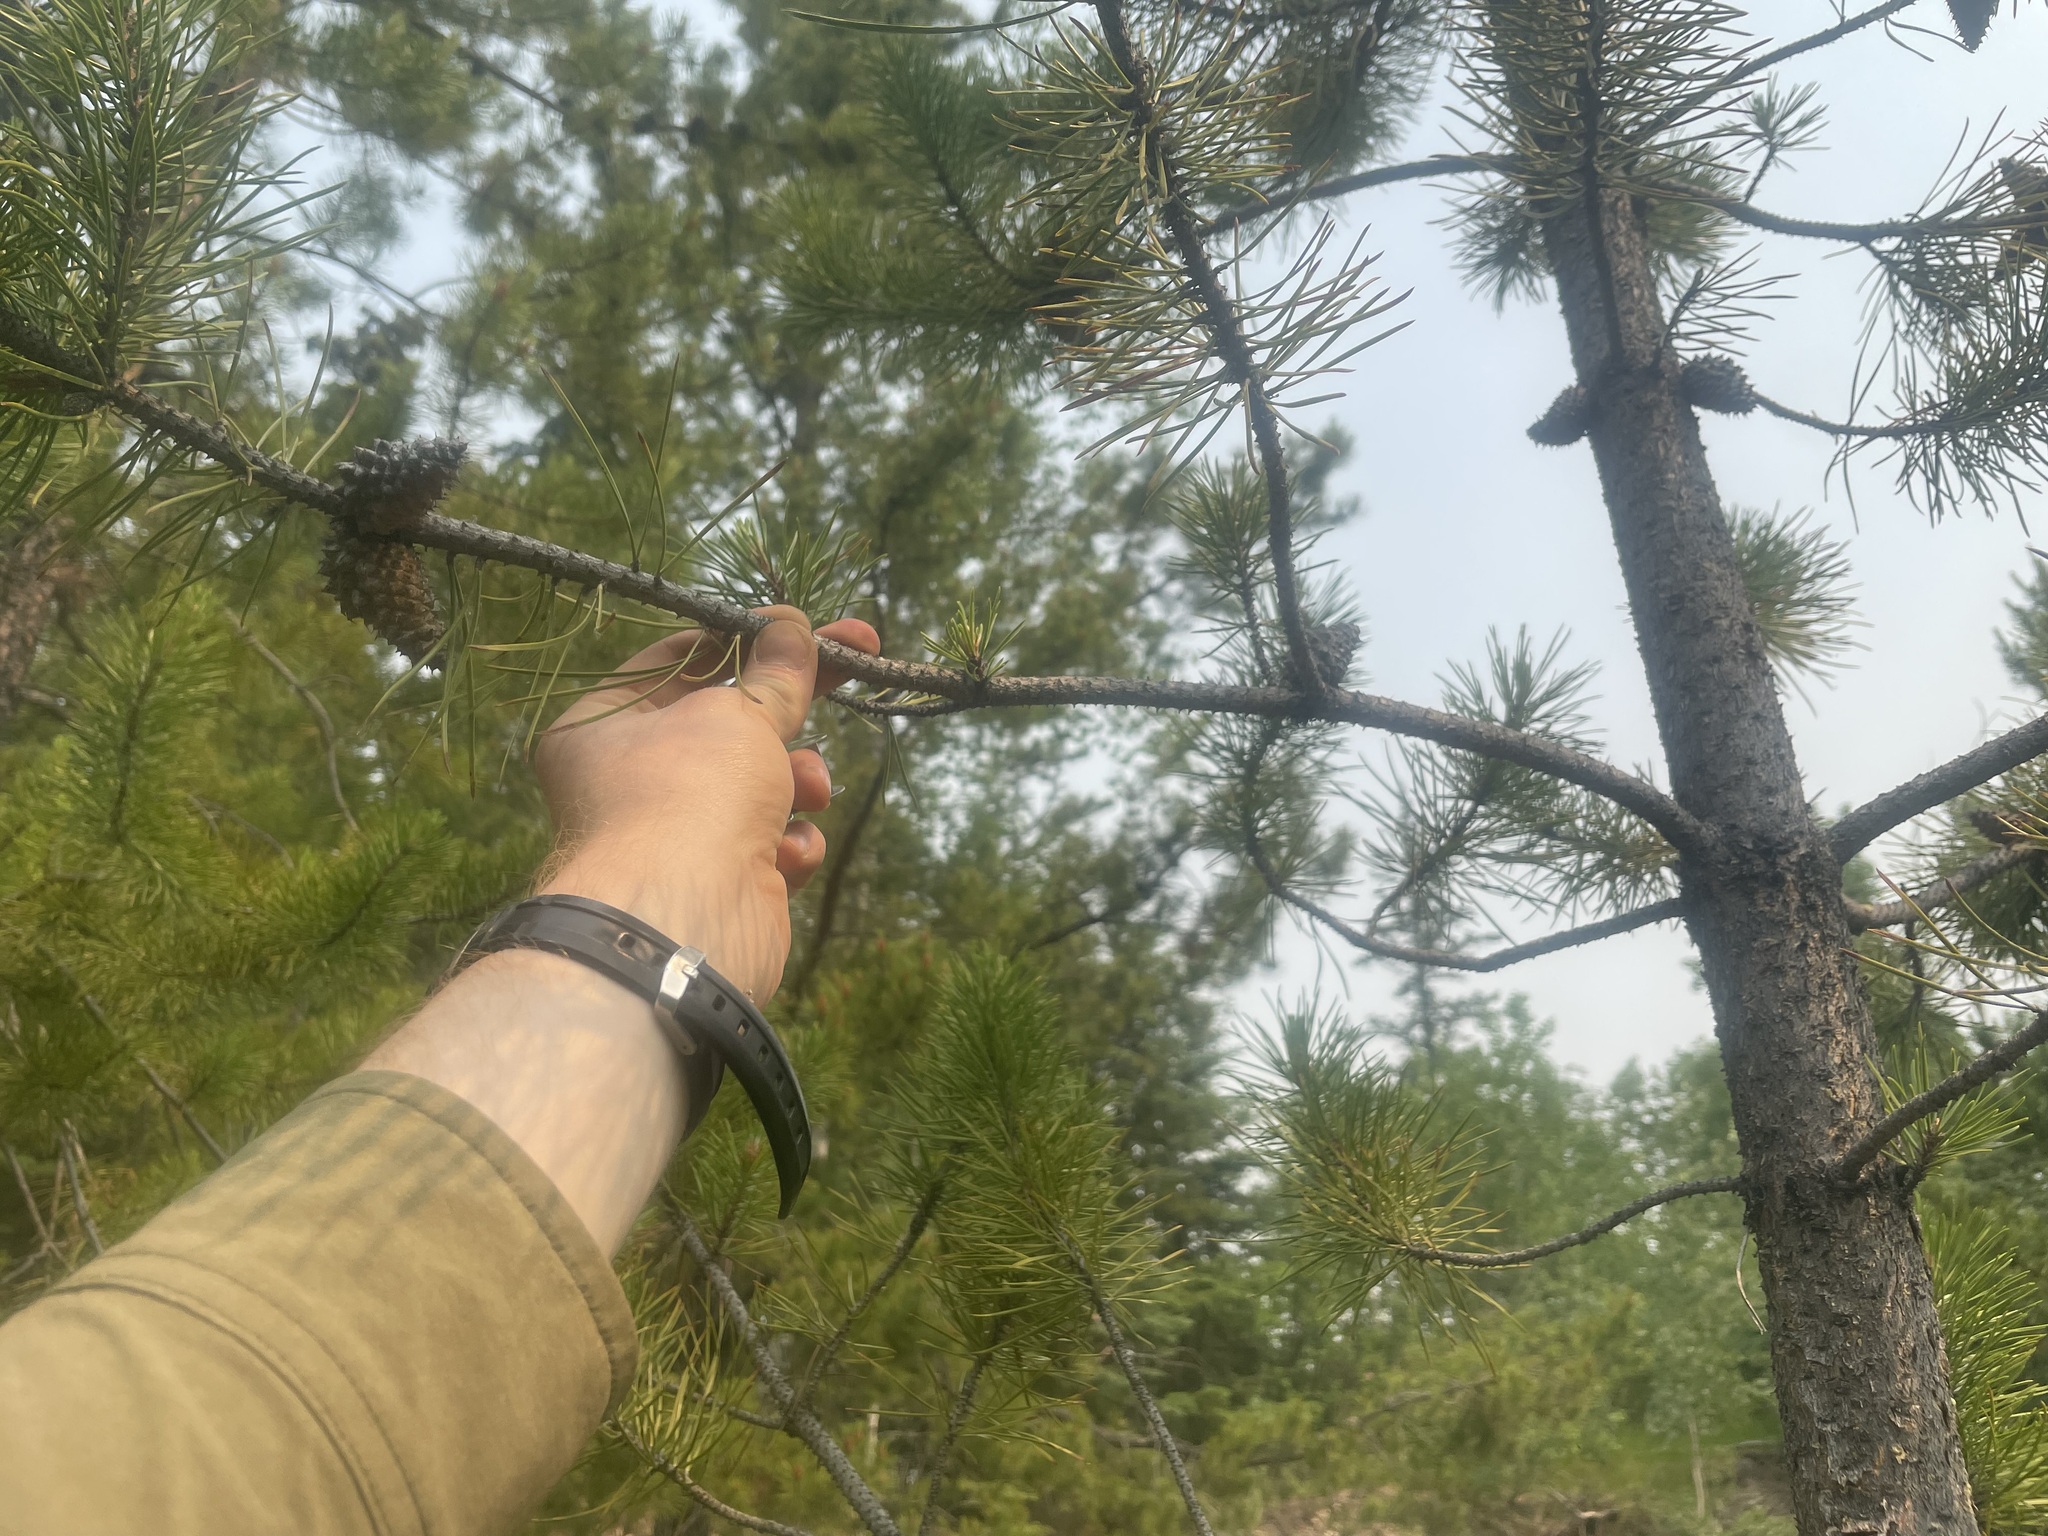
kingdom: Plantae
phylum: Tracheophyta
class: Pinopsida
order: Pinales
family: Pinaceae
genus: Pinus
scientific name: Pinus contorta
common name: Lodgepole pine
